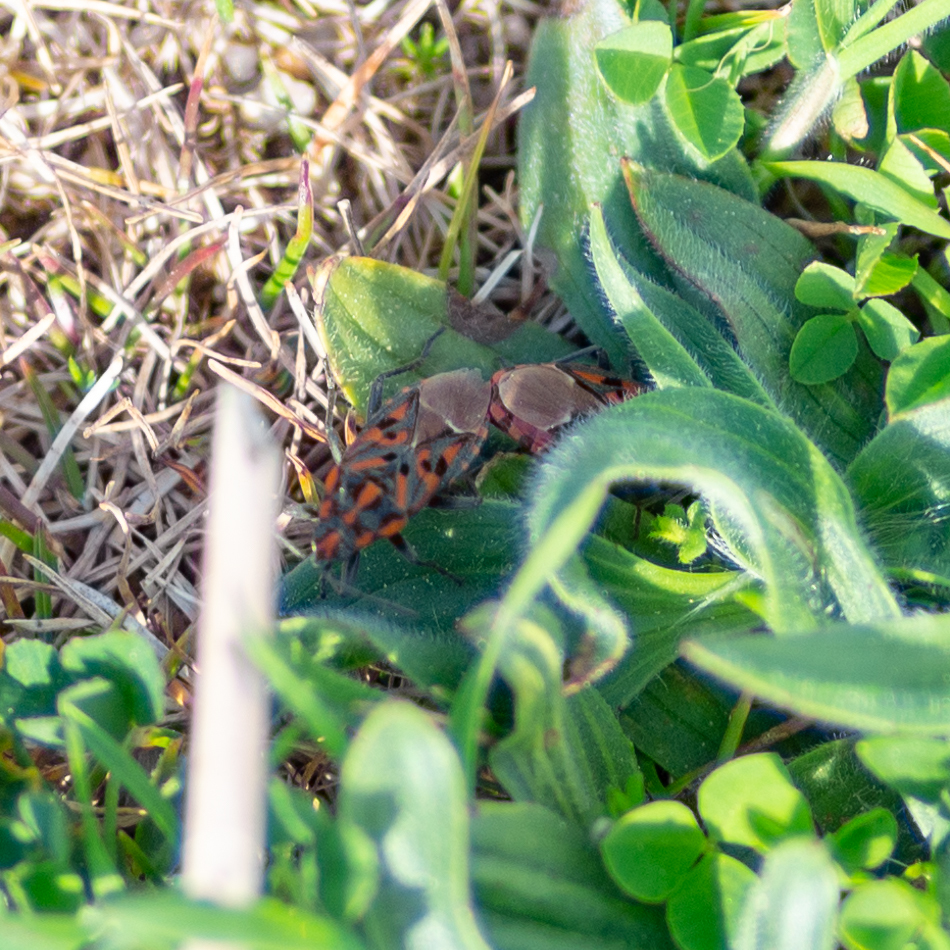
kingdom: Animalia
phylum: Arthropoda
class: Insecta
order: Hemiptera
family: Lygaeidae
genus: Spilostethus
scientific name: Spilostethus saxatilis
